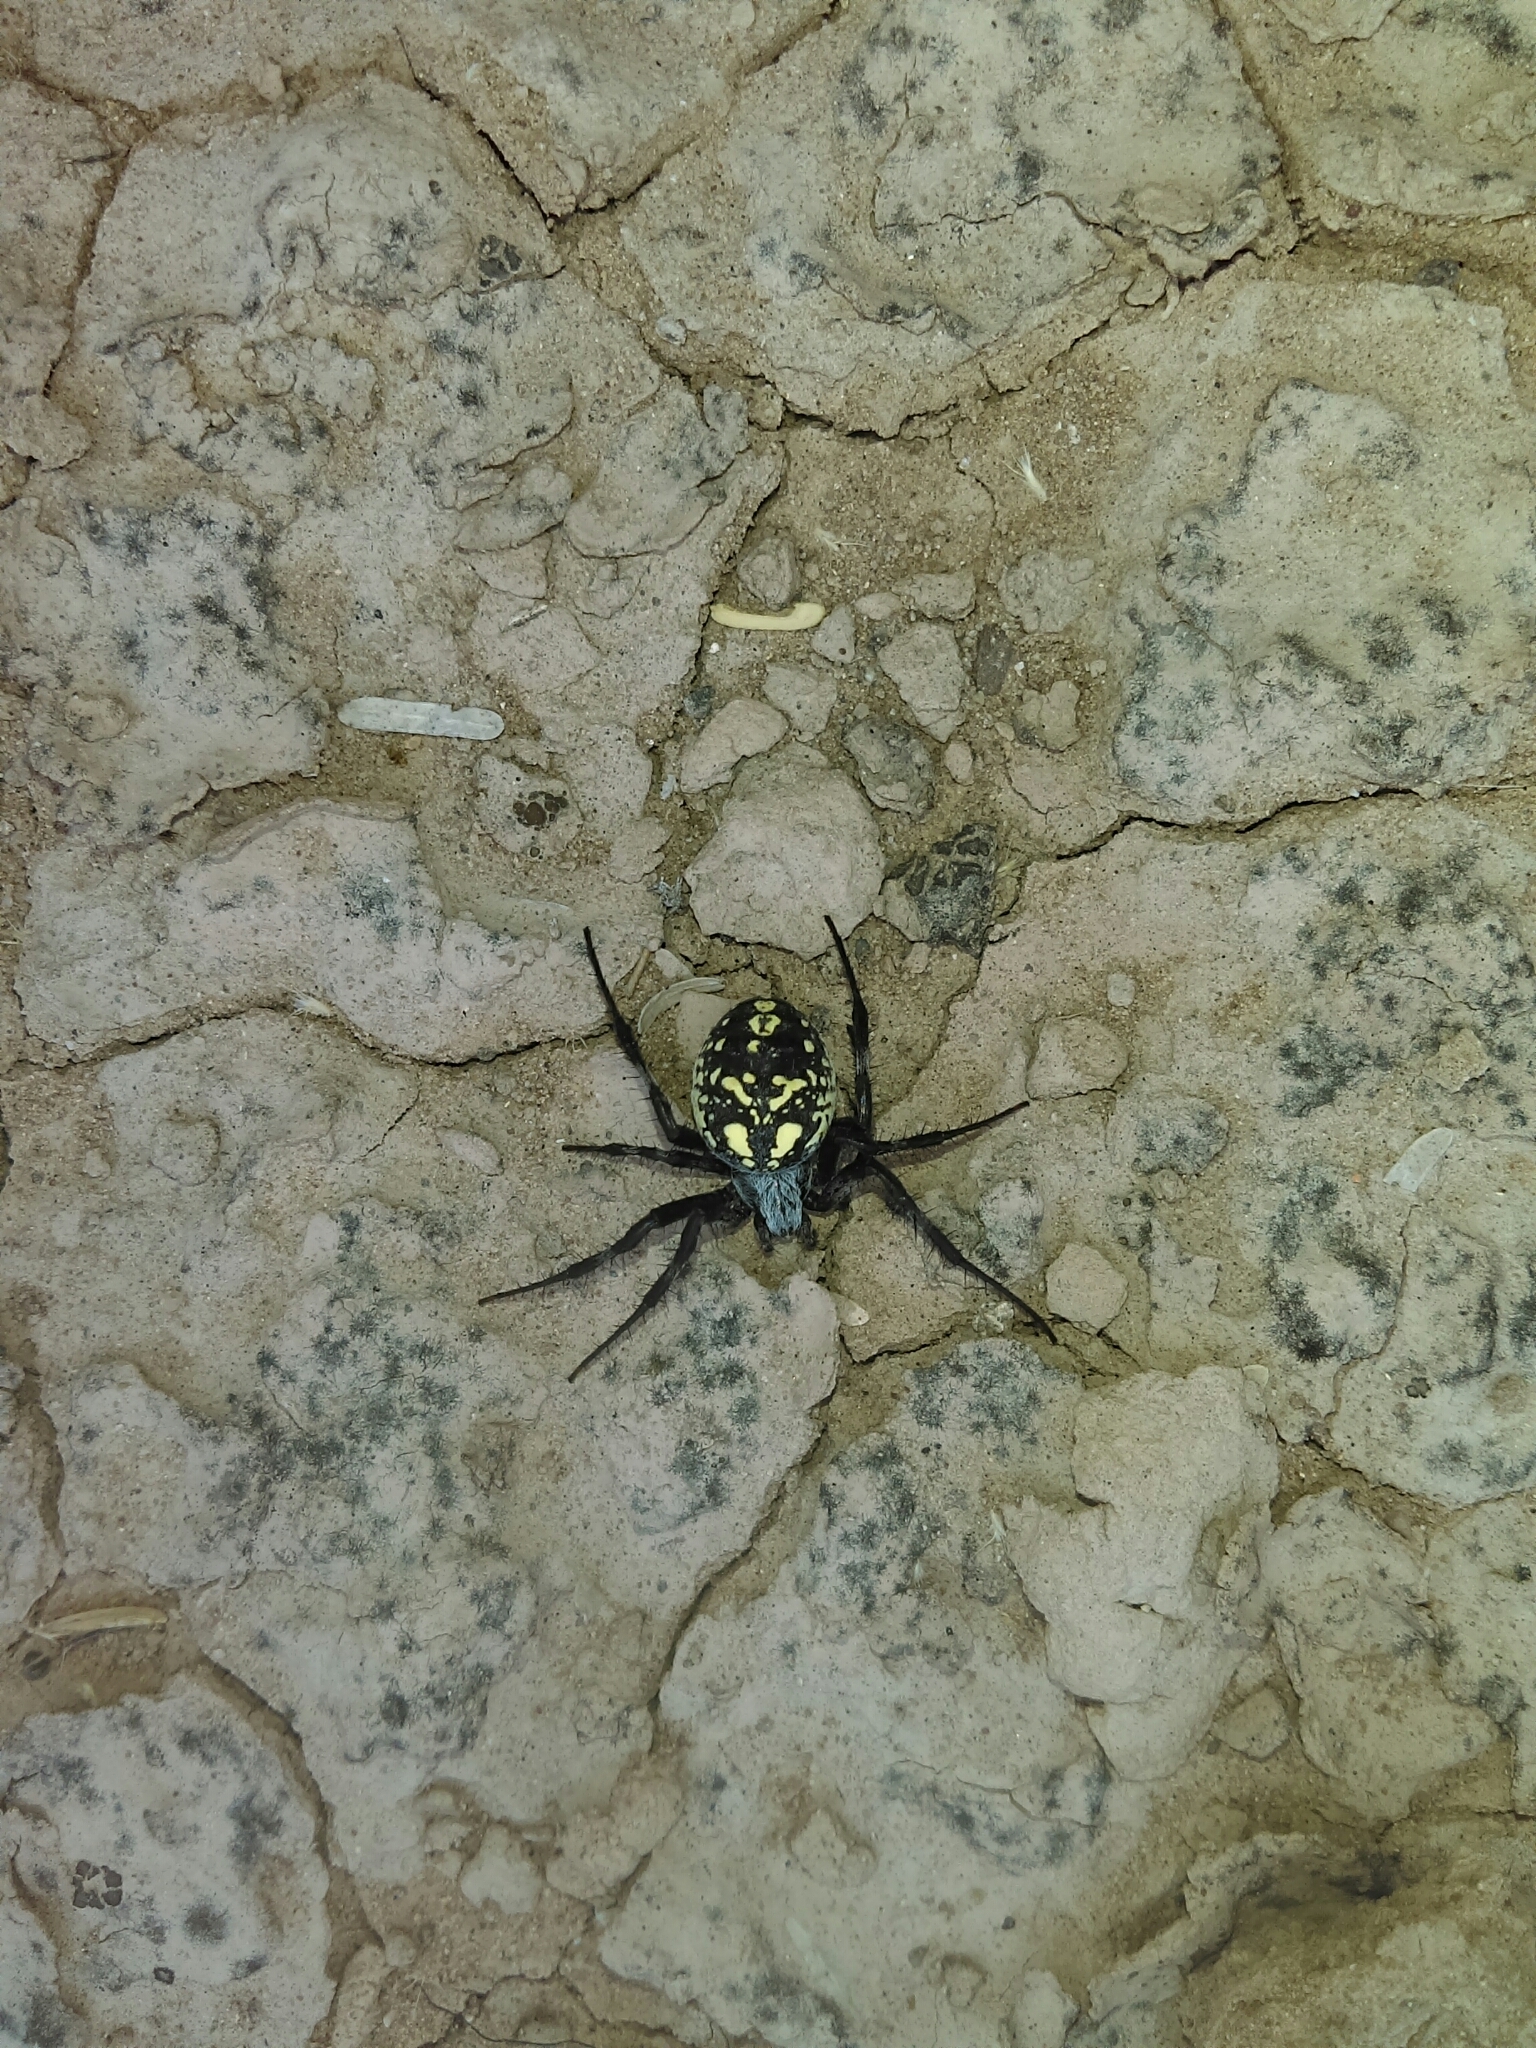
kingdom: Animalia
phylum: Arthropoda
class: Arachnida
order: Araneae
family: Araneidae
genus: Neoscona
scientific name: Neoscona oaxacensis
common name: Orb weavers
